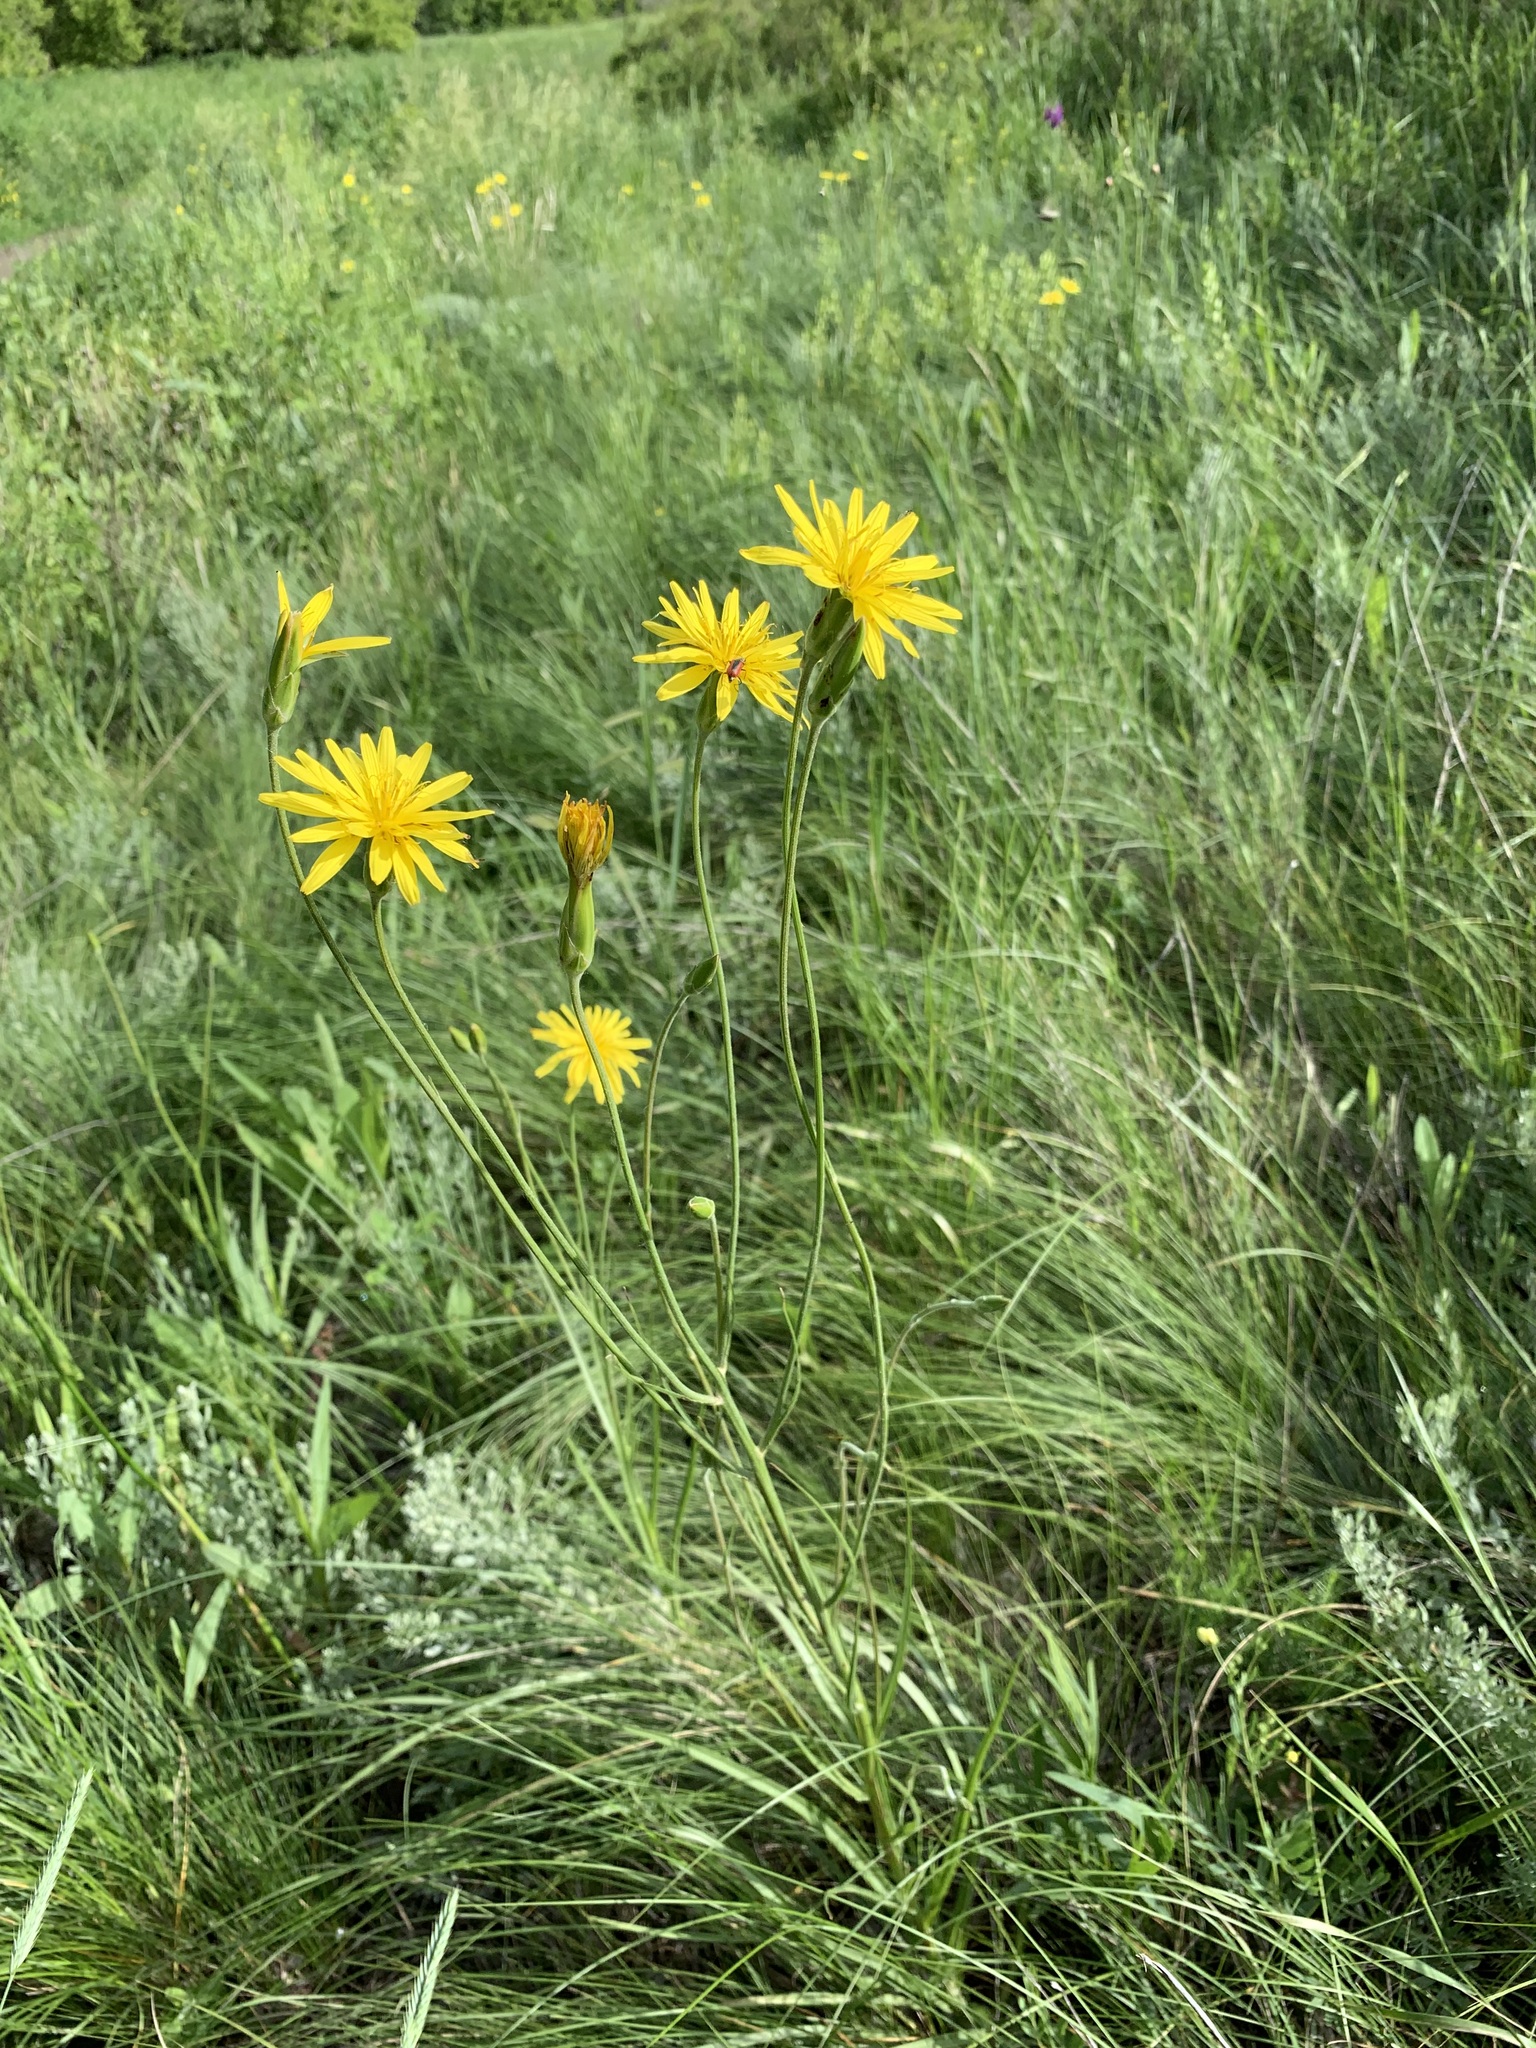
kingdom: Plantae
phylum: Tracheophyta
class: Magnoliopsida
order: Asterales
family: Asteraceae
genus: Pseudopodospermum
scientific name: Pseudopodospermum strictum
